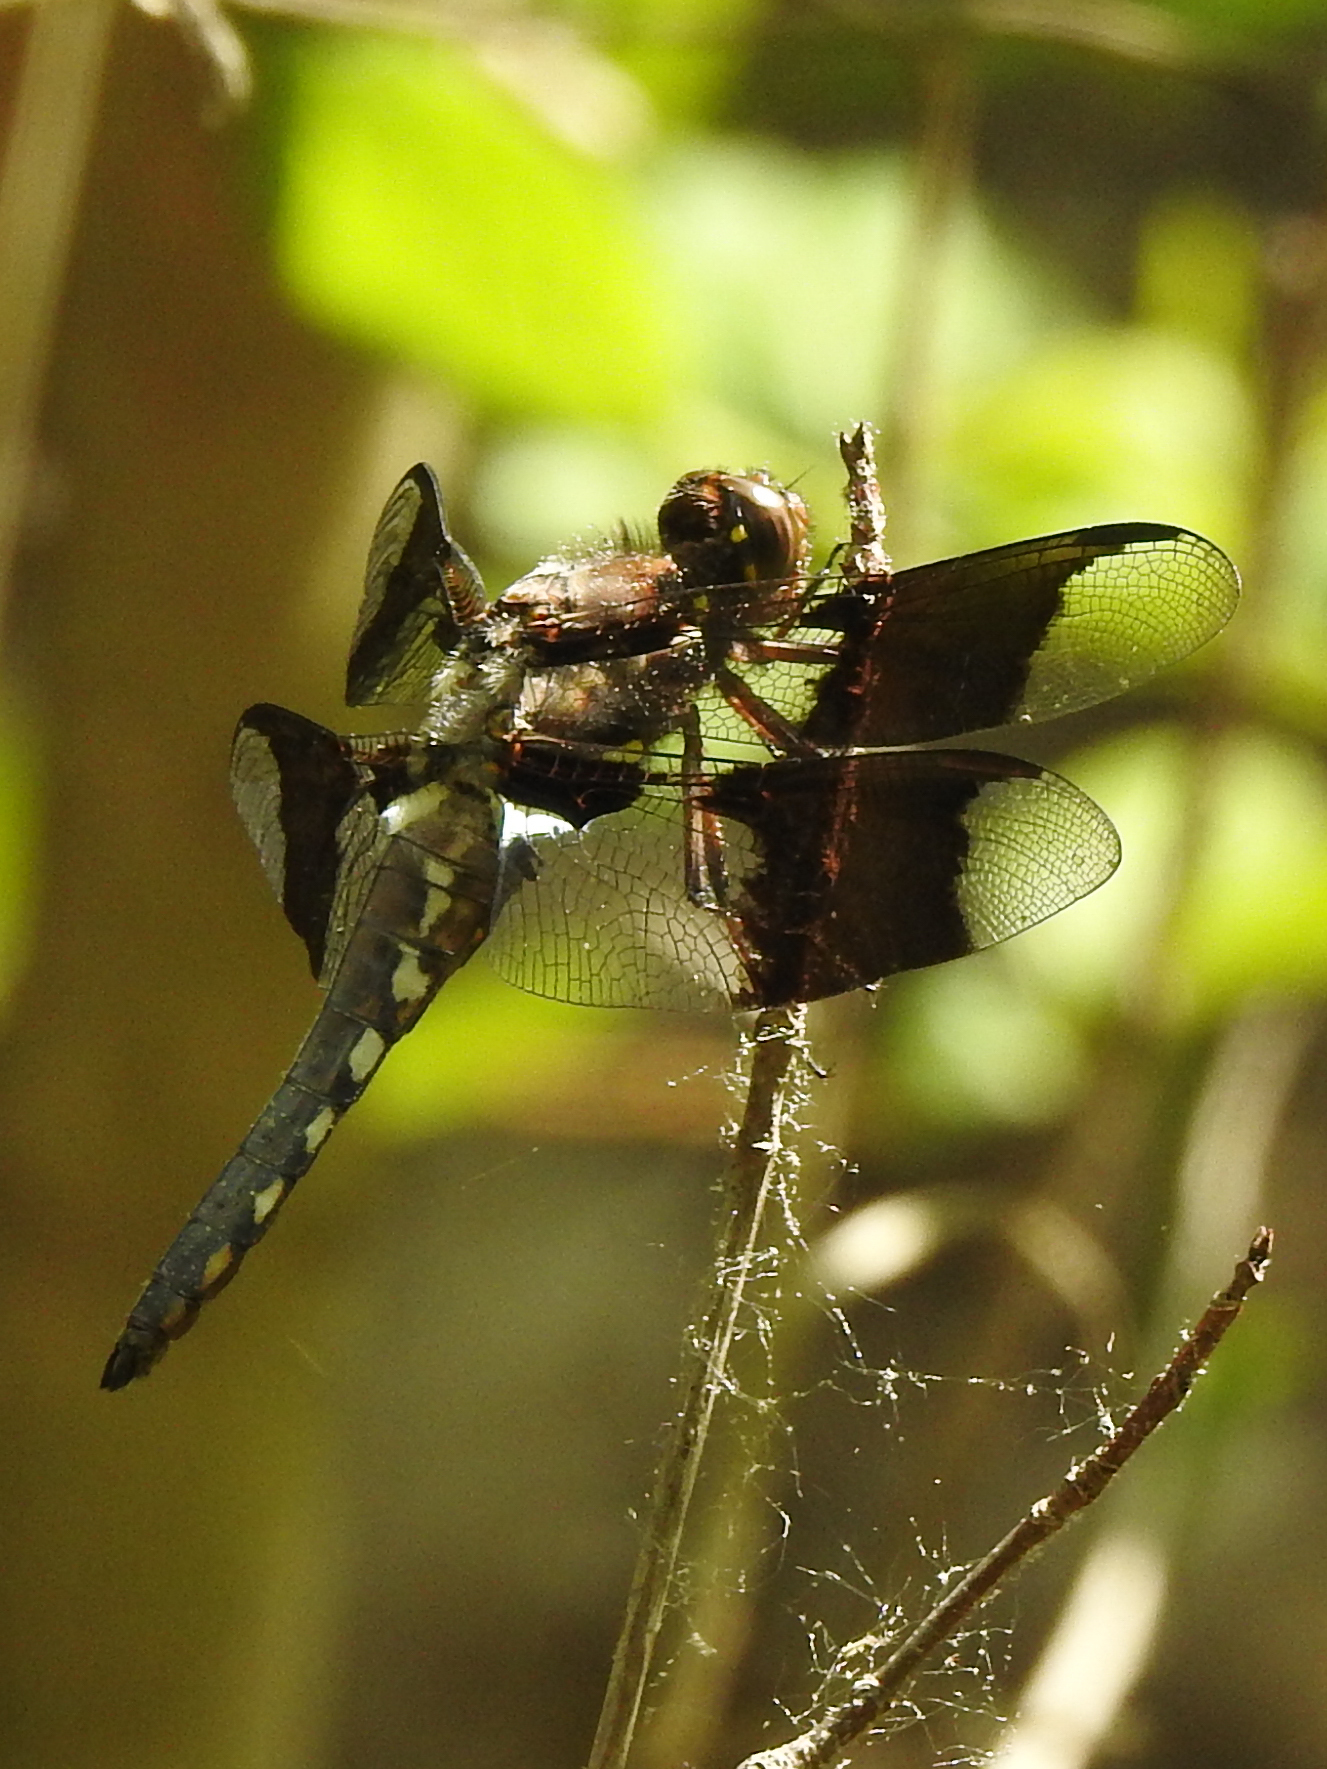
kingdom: Animalia
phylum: Arthropoda
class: Insecta
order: Odonata
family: Libellulidae
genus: Plathemis
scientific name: Plathemis lydia
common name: Common whitetail
